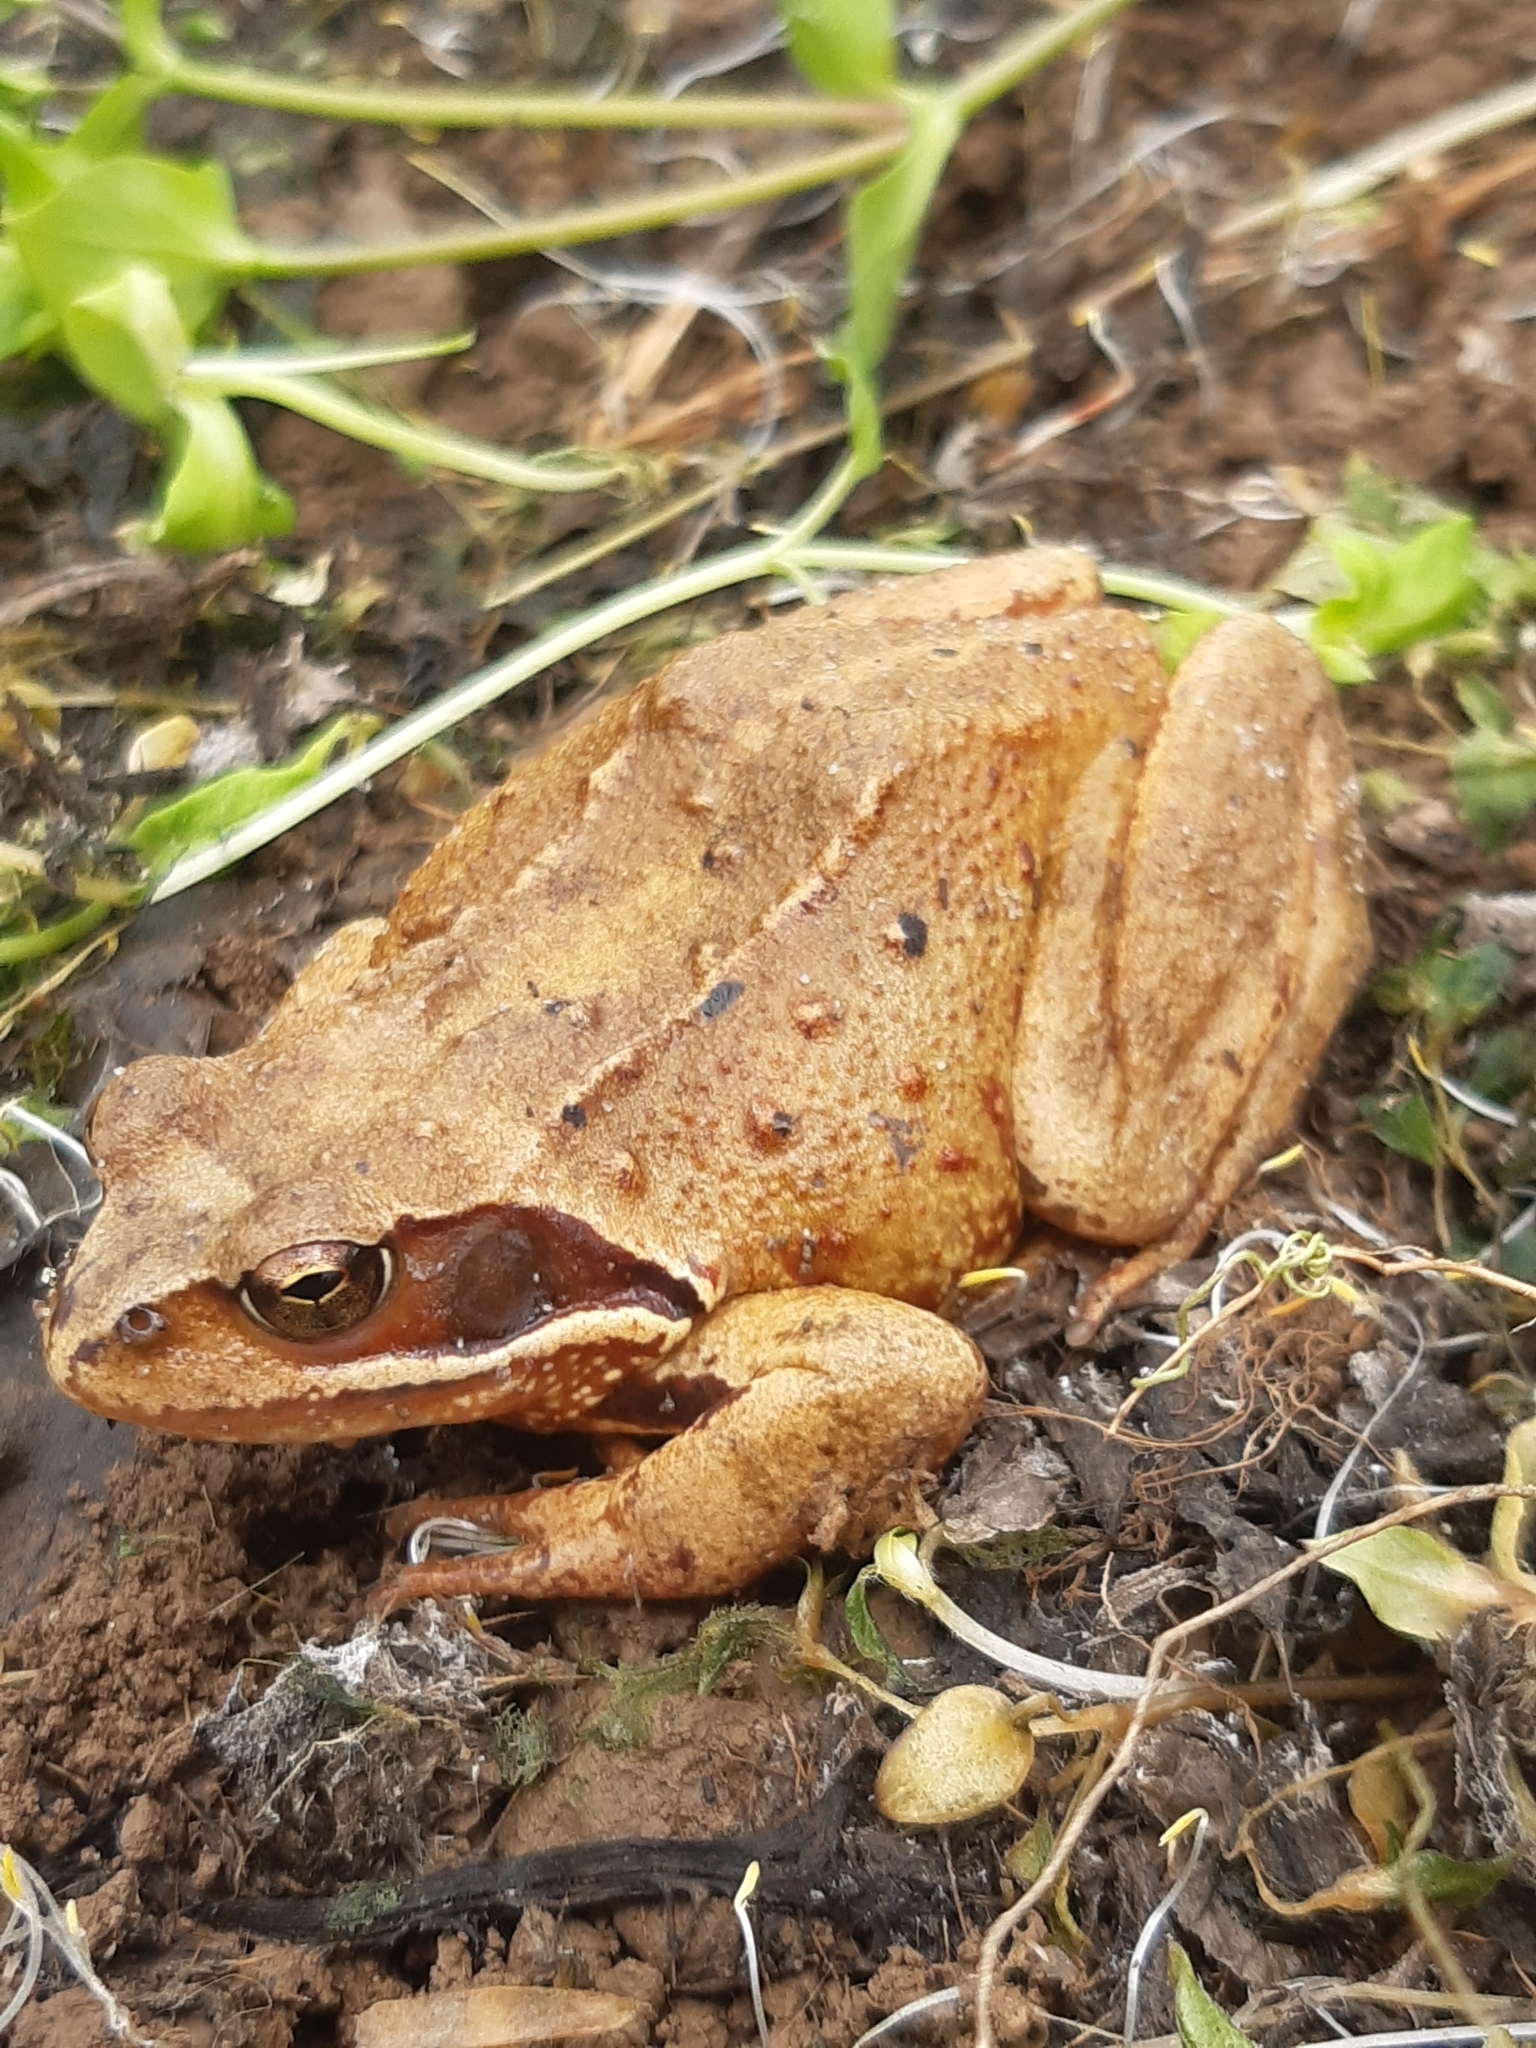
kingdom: Animalia
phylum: Chordata
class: Amphibia
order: Anura
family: Ranidae
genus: Rana
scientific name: Rana temporaria
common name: Common frog
